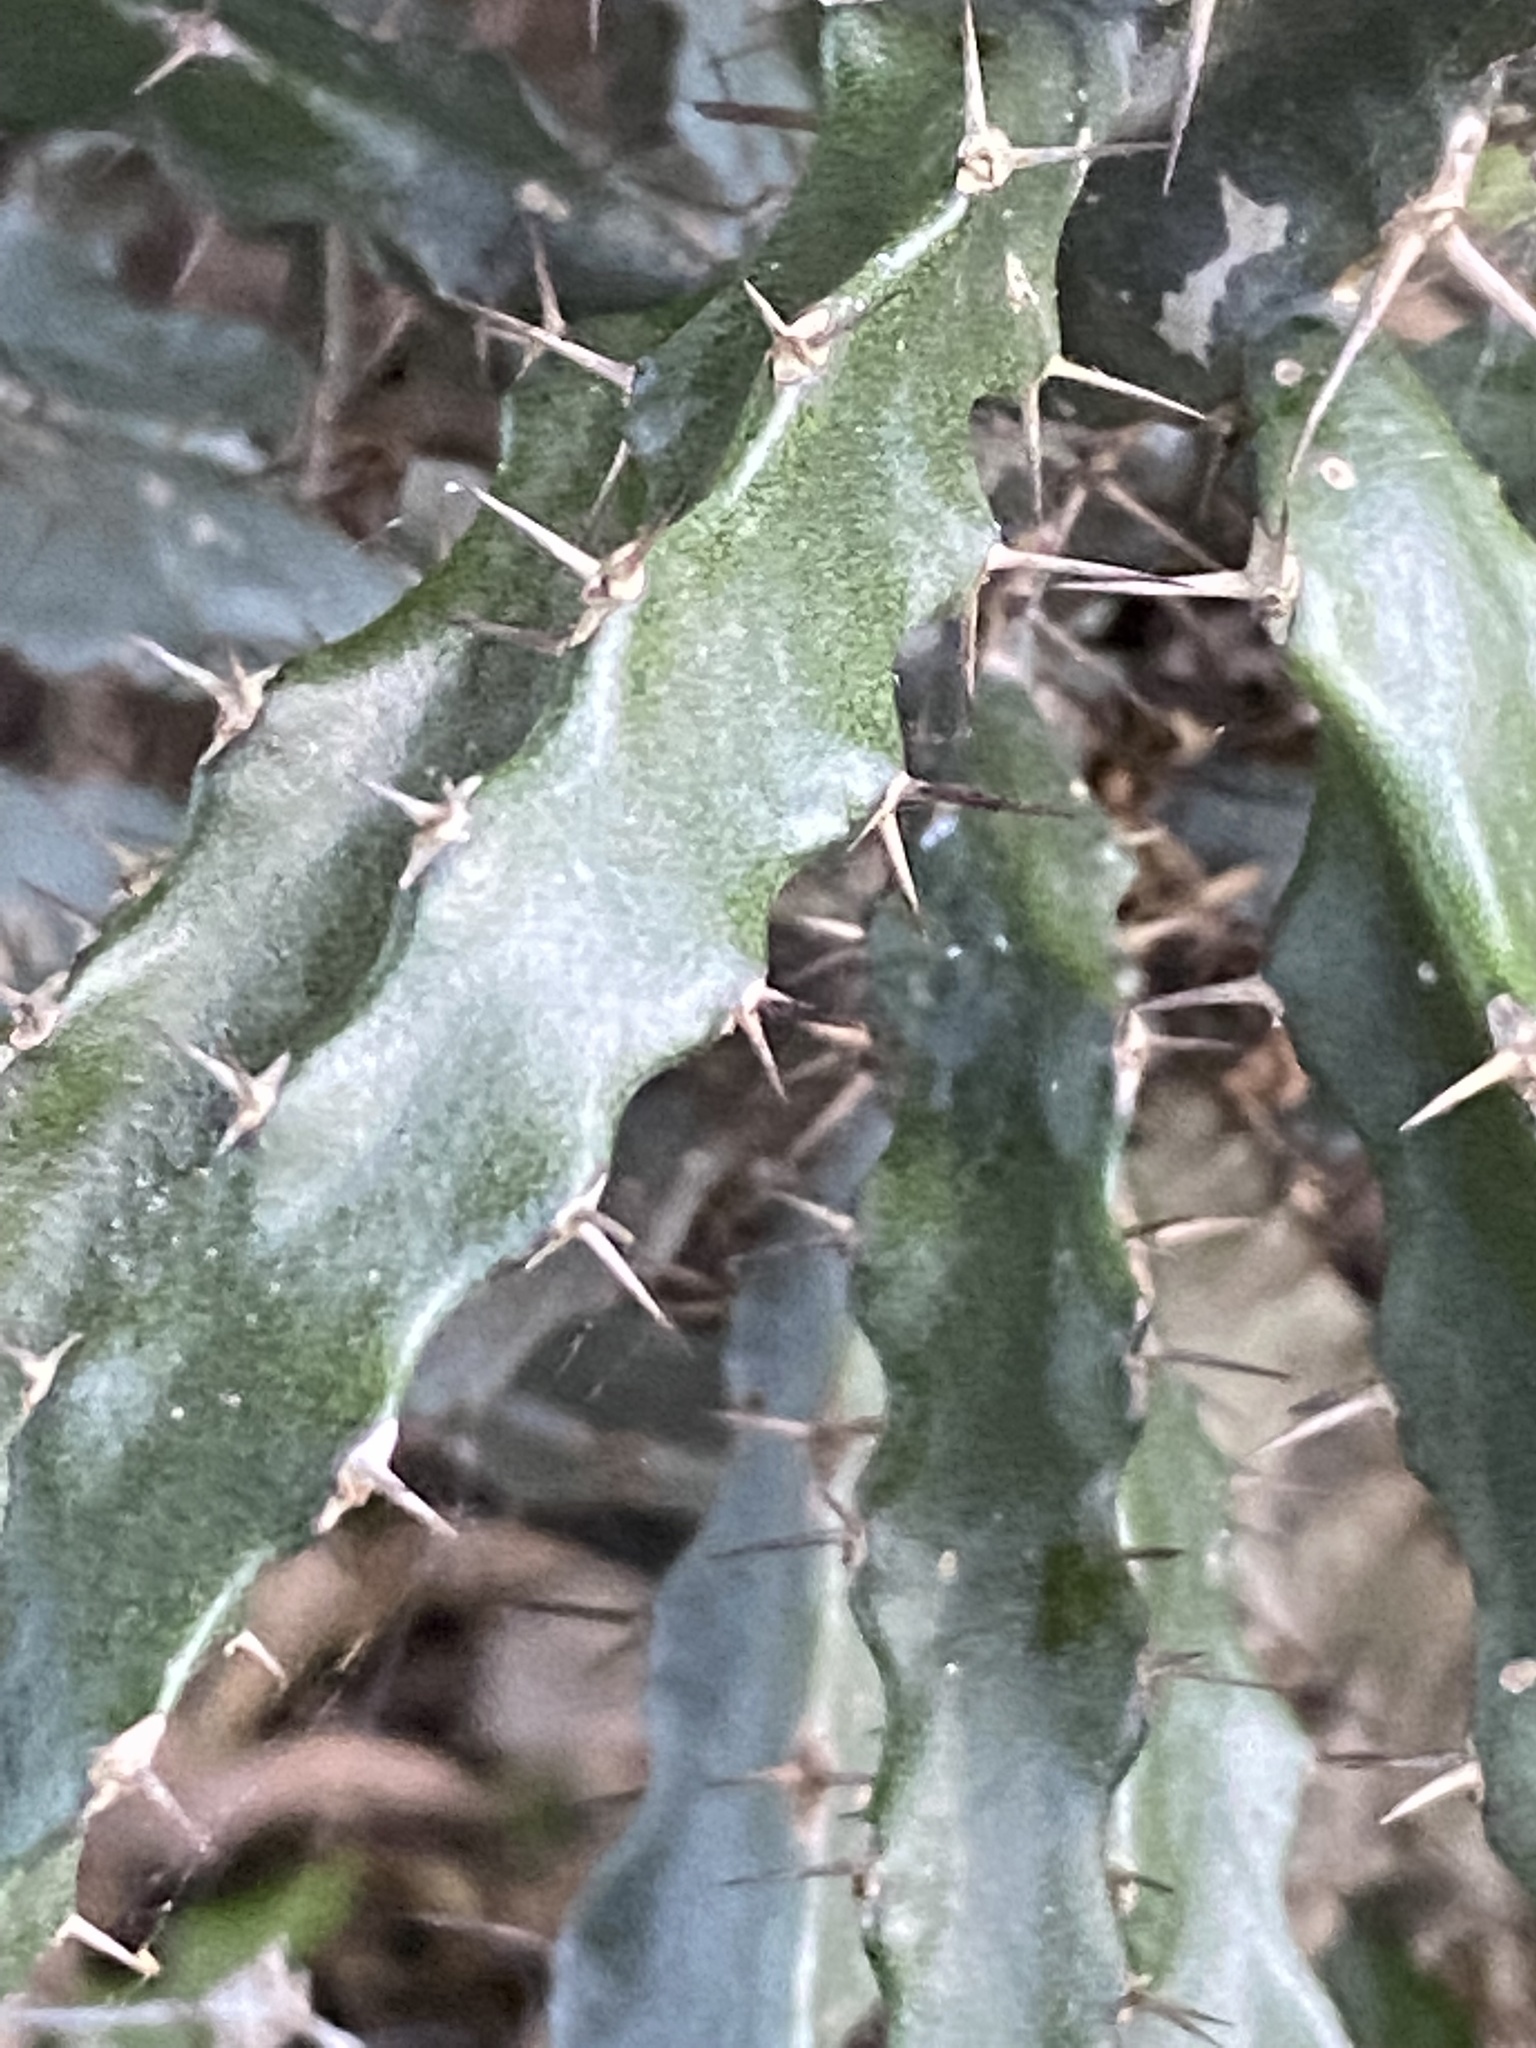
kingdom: Plantae
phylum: Tracheophyta
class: Magnoliopsida
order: Malpighiales
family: Euphorbiaceae
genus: Euphorbia
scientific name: Euphorbia grandidens
